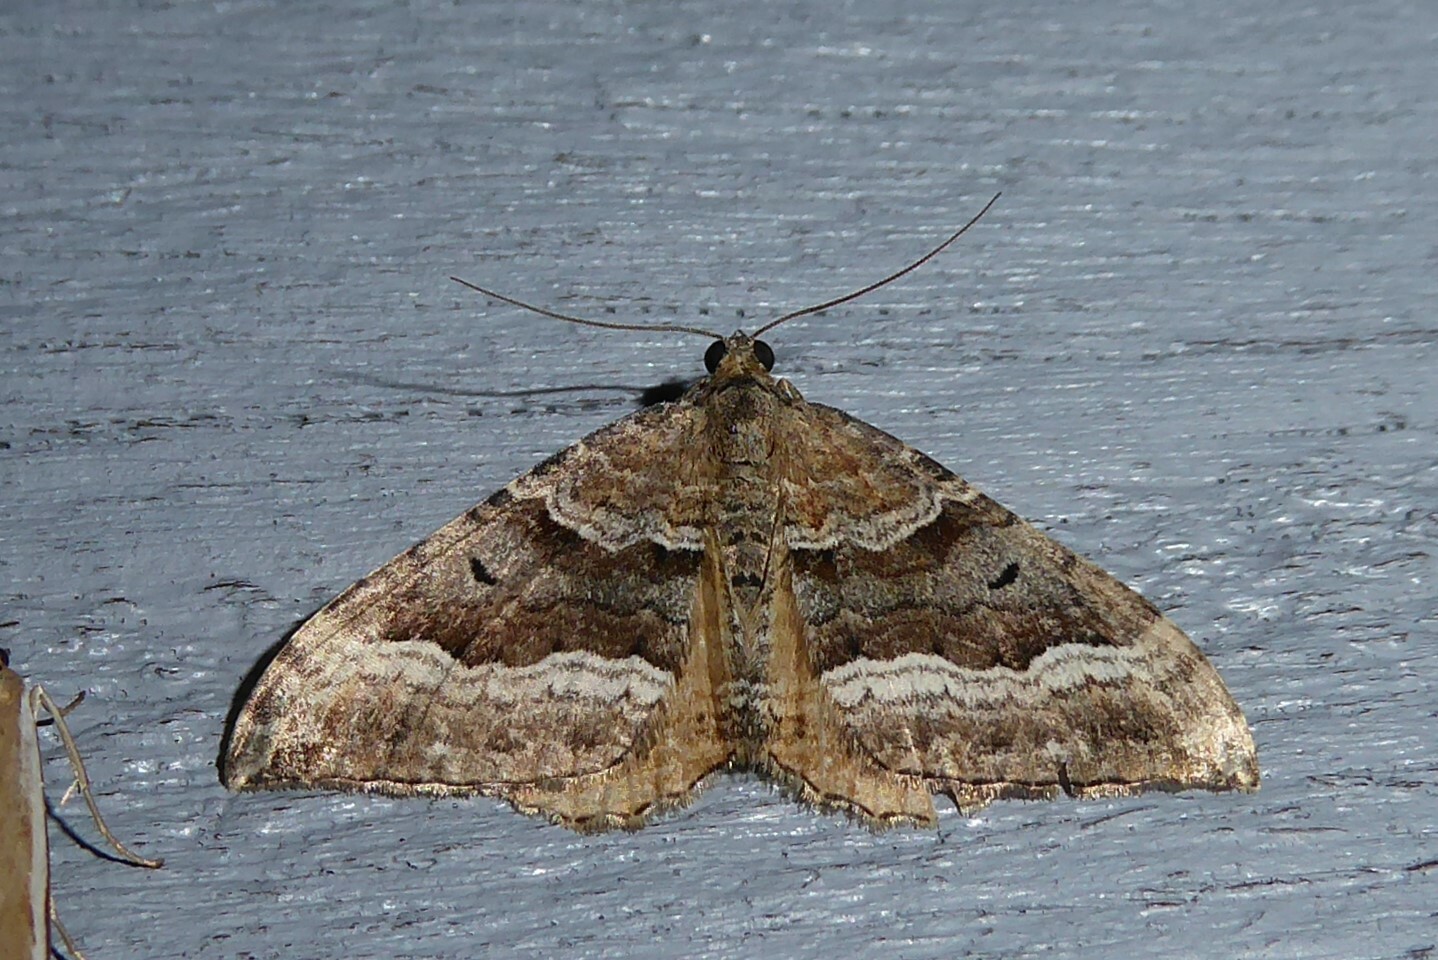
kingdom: Animalia
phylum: Arthropoda
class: Insecta
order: Lepidoptera
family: Geometridae
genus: Hydriomena
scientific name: Hydriomena deltoidata
